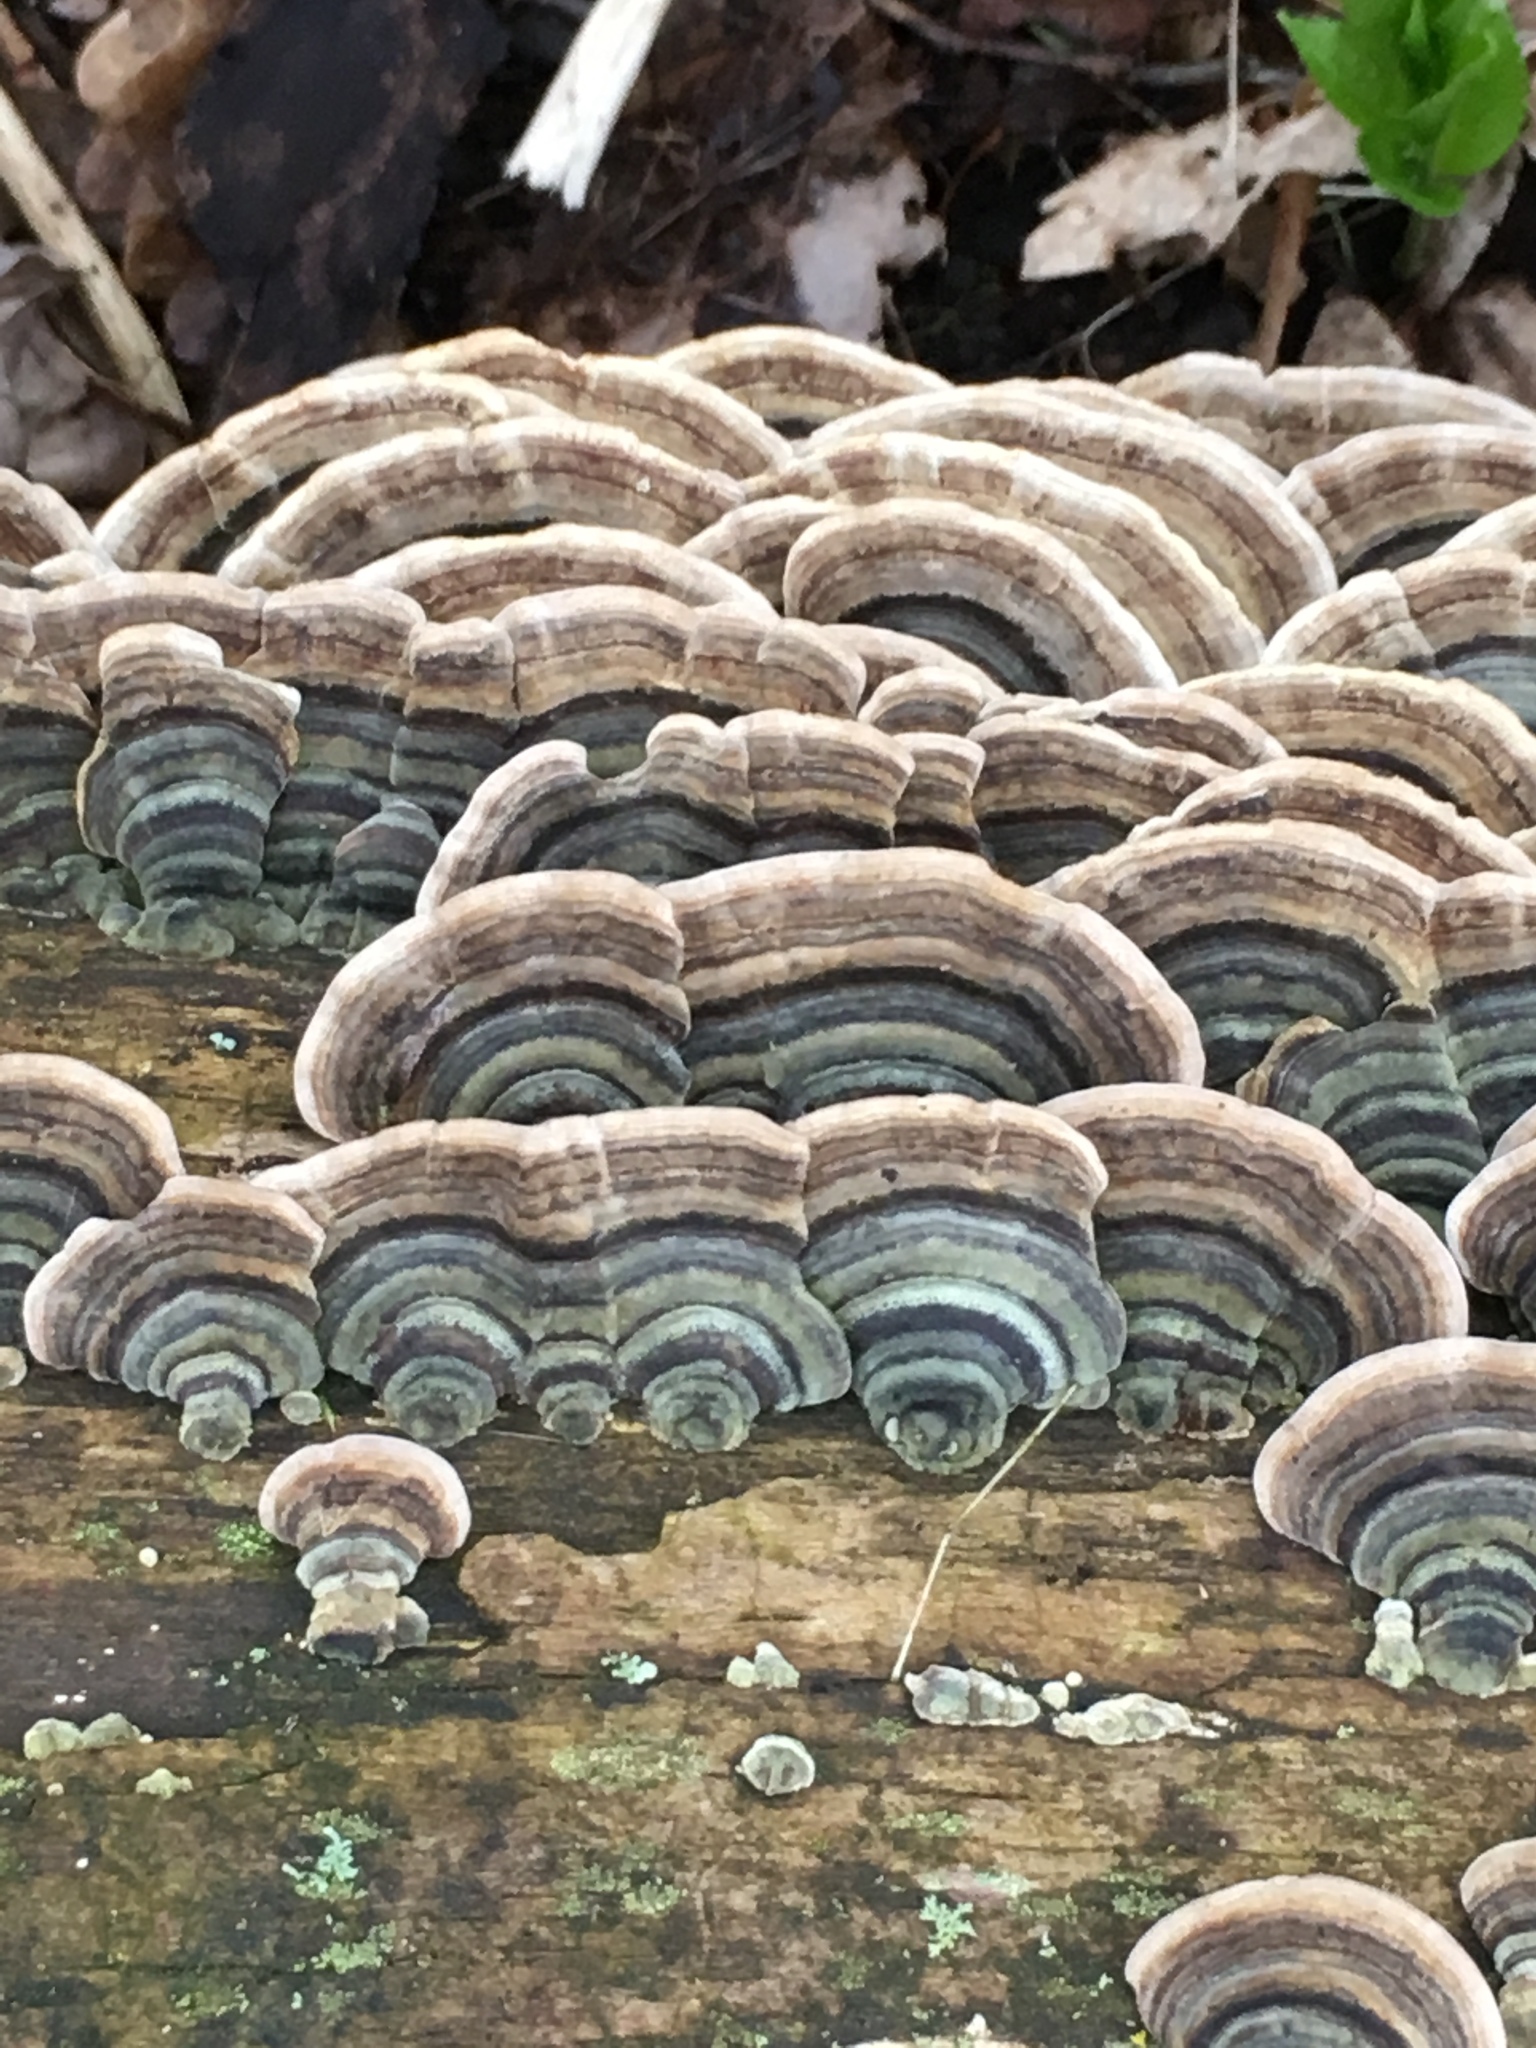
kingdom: Fungi
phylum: Basidiomycota
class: Agaricomycetes
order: Polyporales
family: Polyporaceae
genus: Trametes
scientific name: Trametes versicolor
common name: Turkeytail
